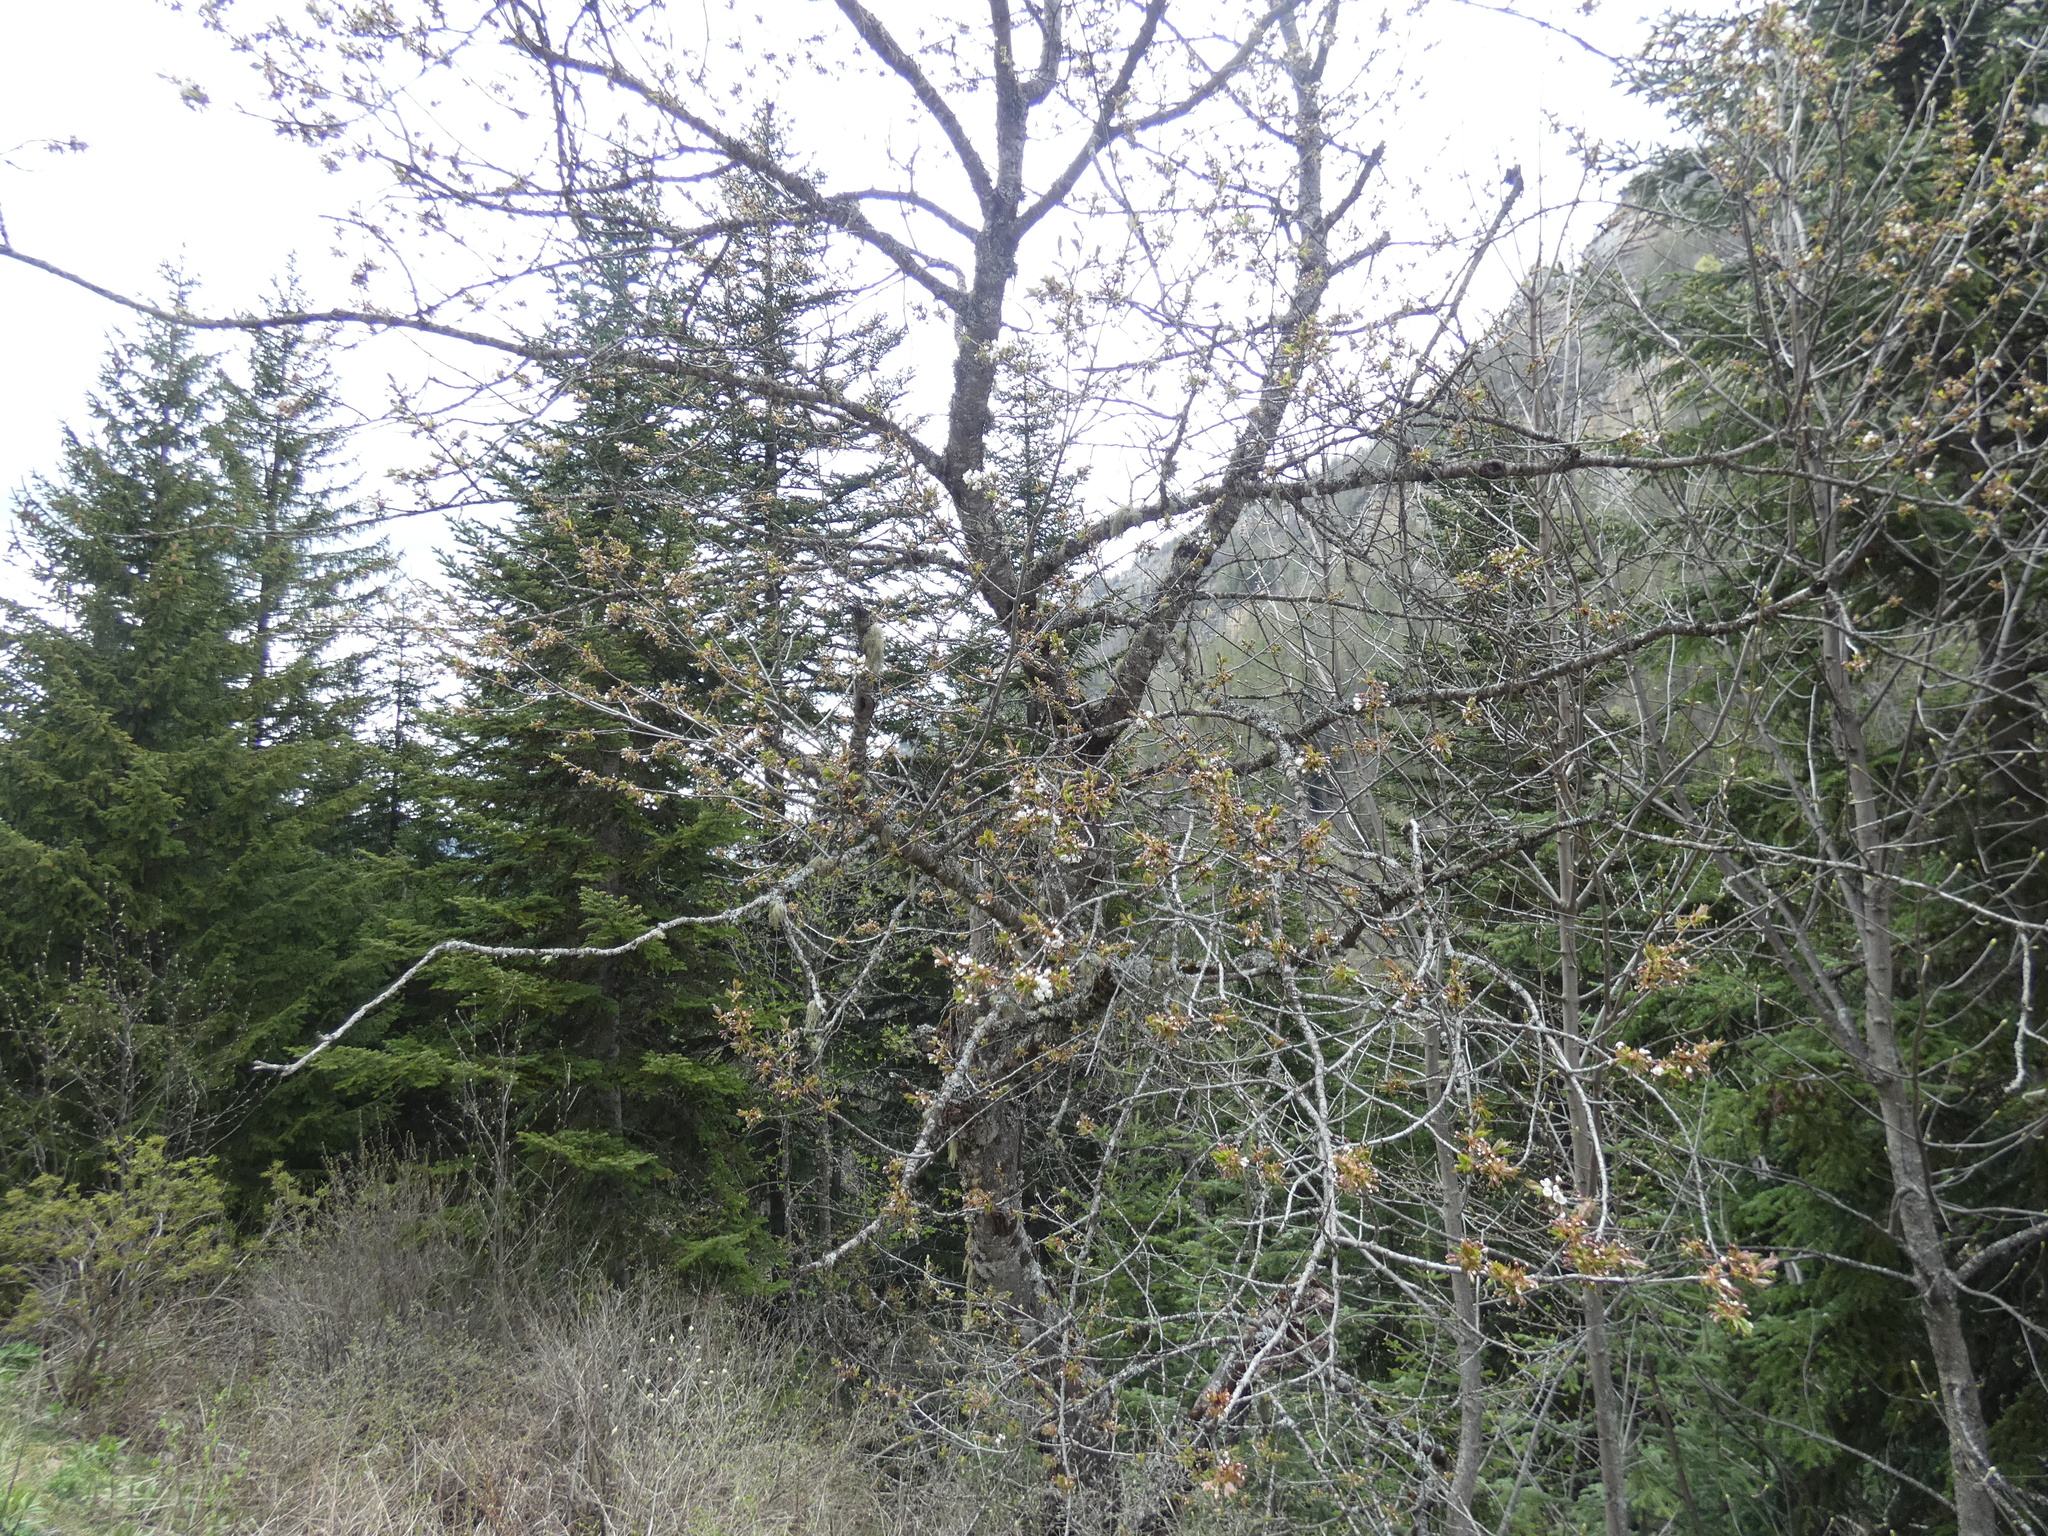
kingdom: Plantae
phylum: Tracheophyta
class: Magnoliopsida
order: Rosales
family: Rosaceae
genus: Prunus
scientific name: Prunus avium
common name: Sweet cherry
